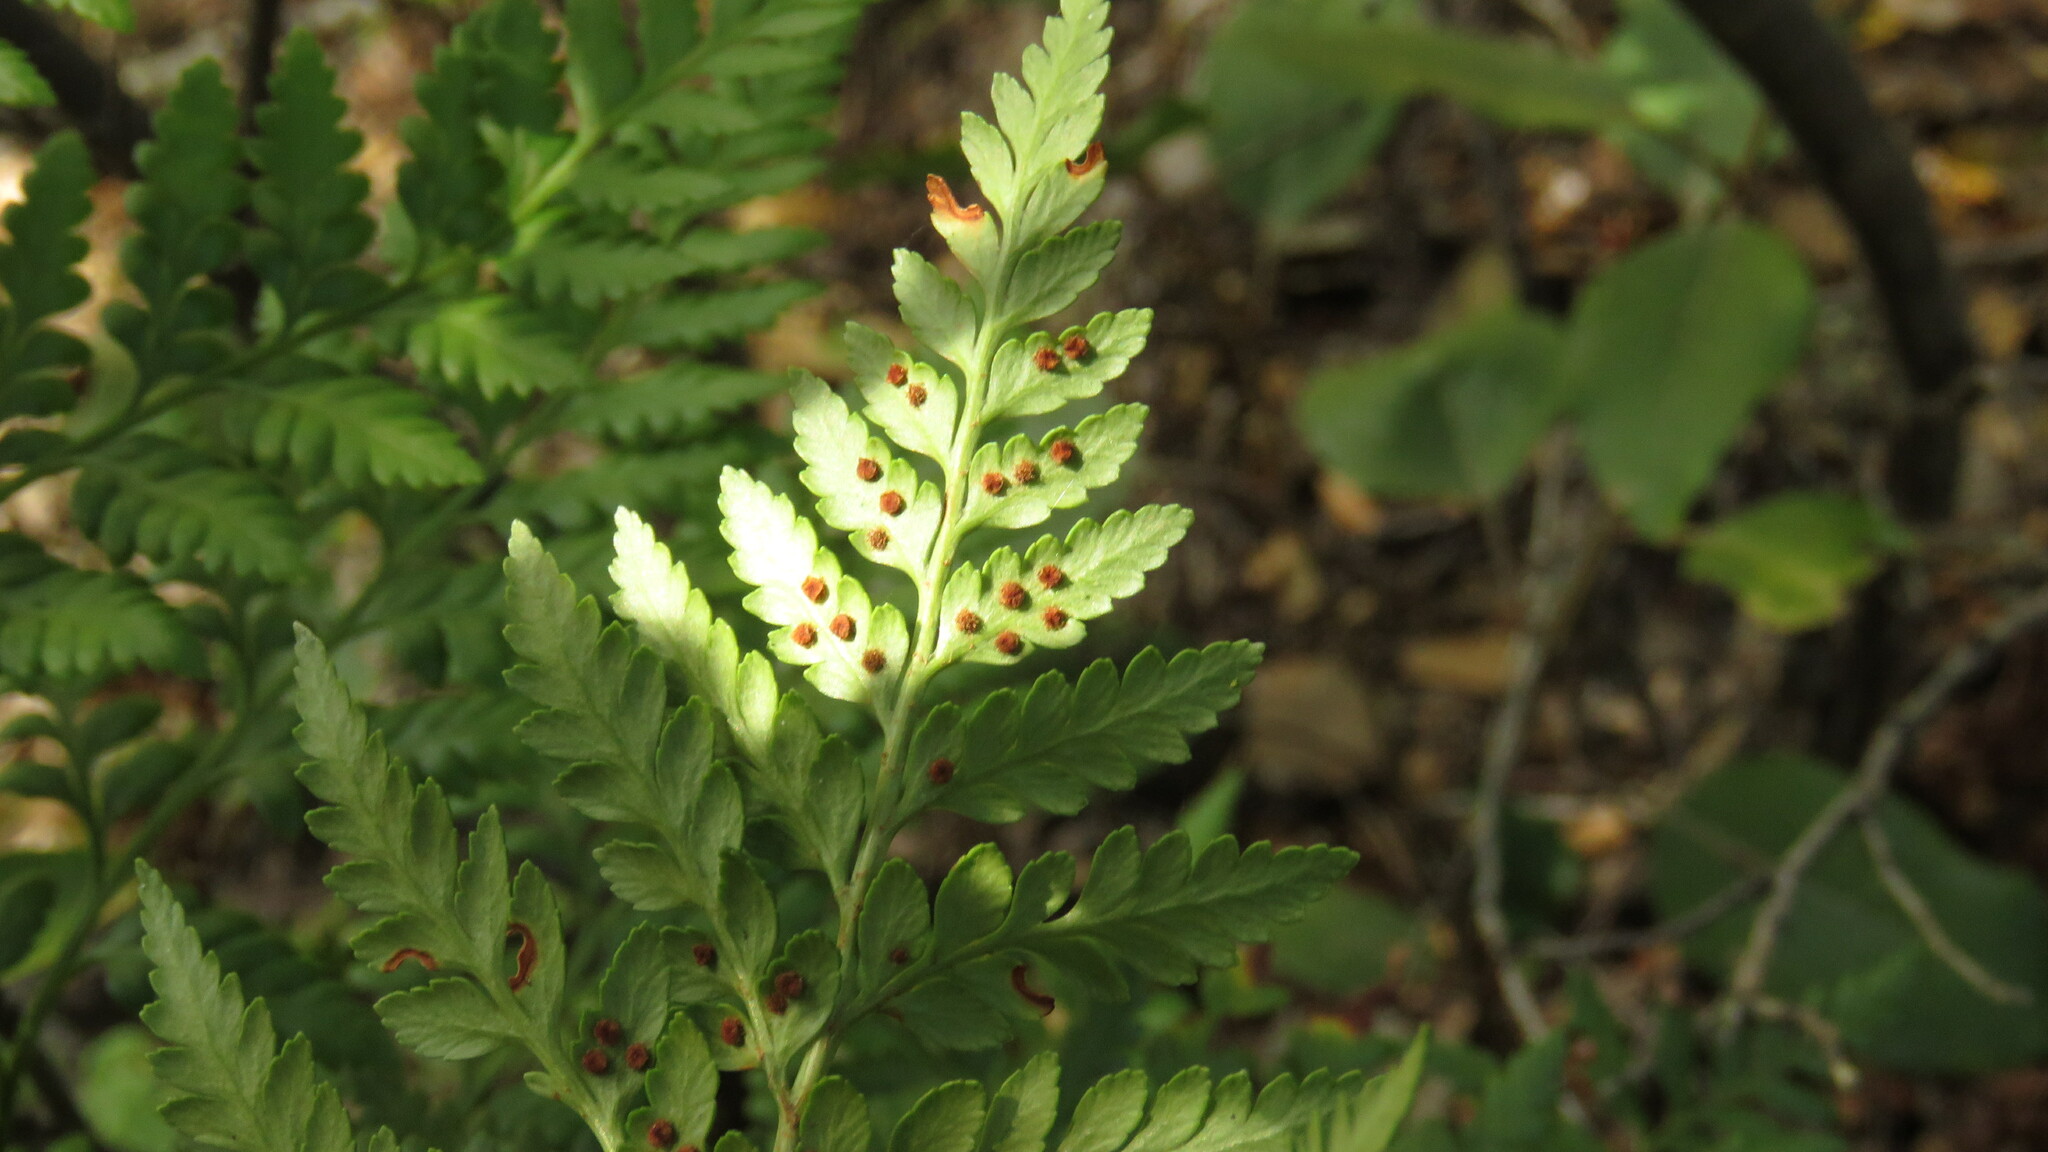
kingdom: Plantae
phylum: Tracheophyta
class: Polypodiopsida
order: Polypodiales
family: Dryopteridaceae
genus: Rumohra
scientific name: Rumohra adiantiformis
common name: Leather fern
